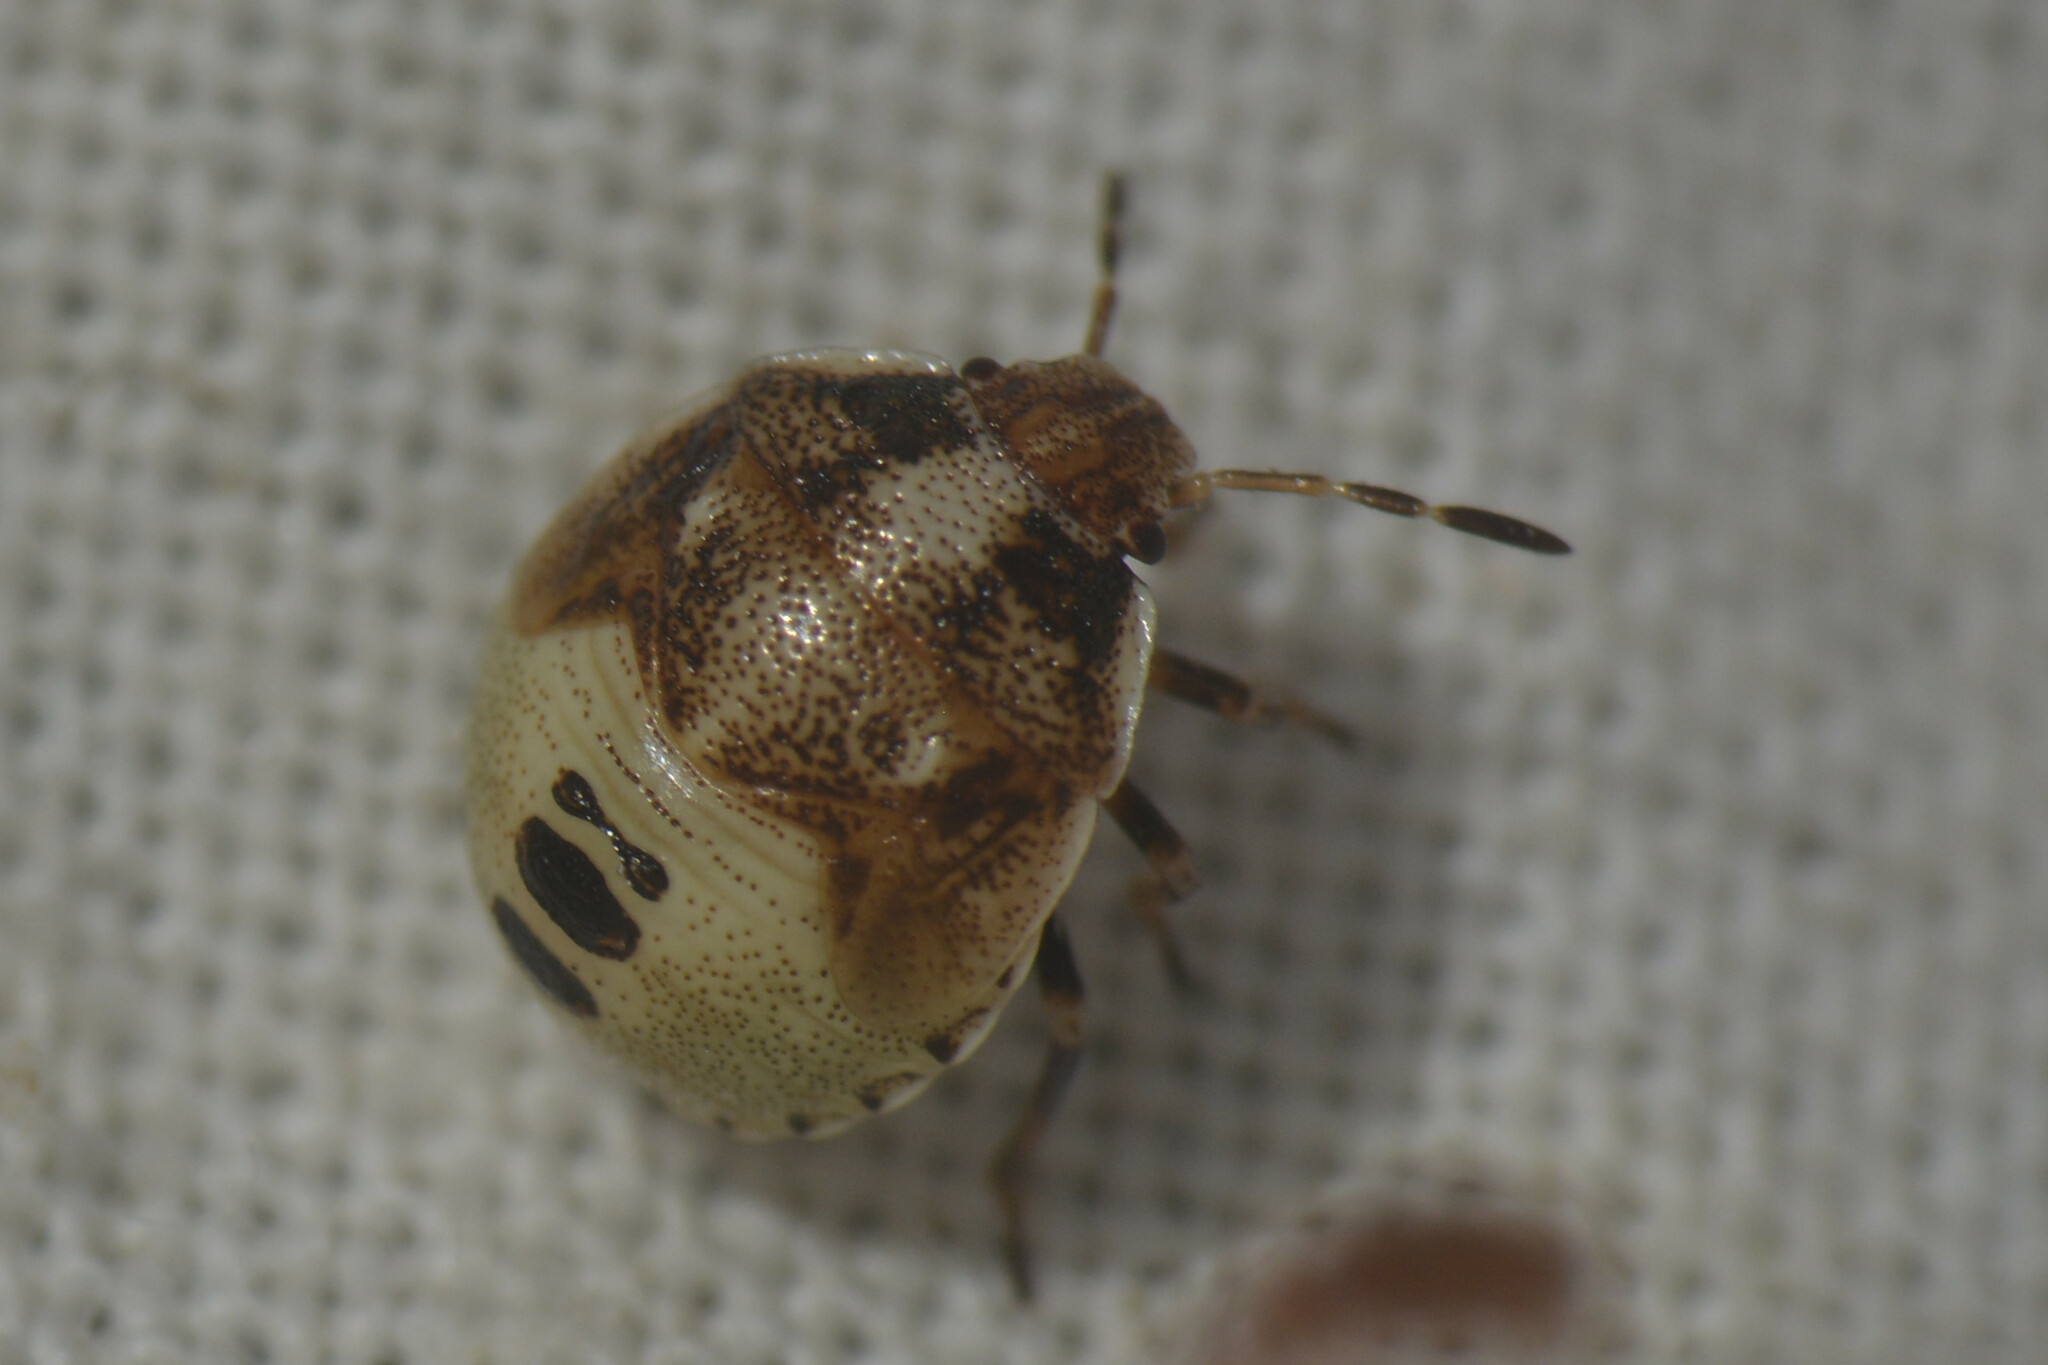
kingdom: Animalia
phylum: Arthropoda
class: Insecta
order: Hemiptera
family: Pentatomidae
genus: Eysarcoris
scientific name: Eysarcoris venustissimus
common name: Woundwort shieldbug
